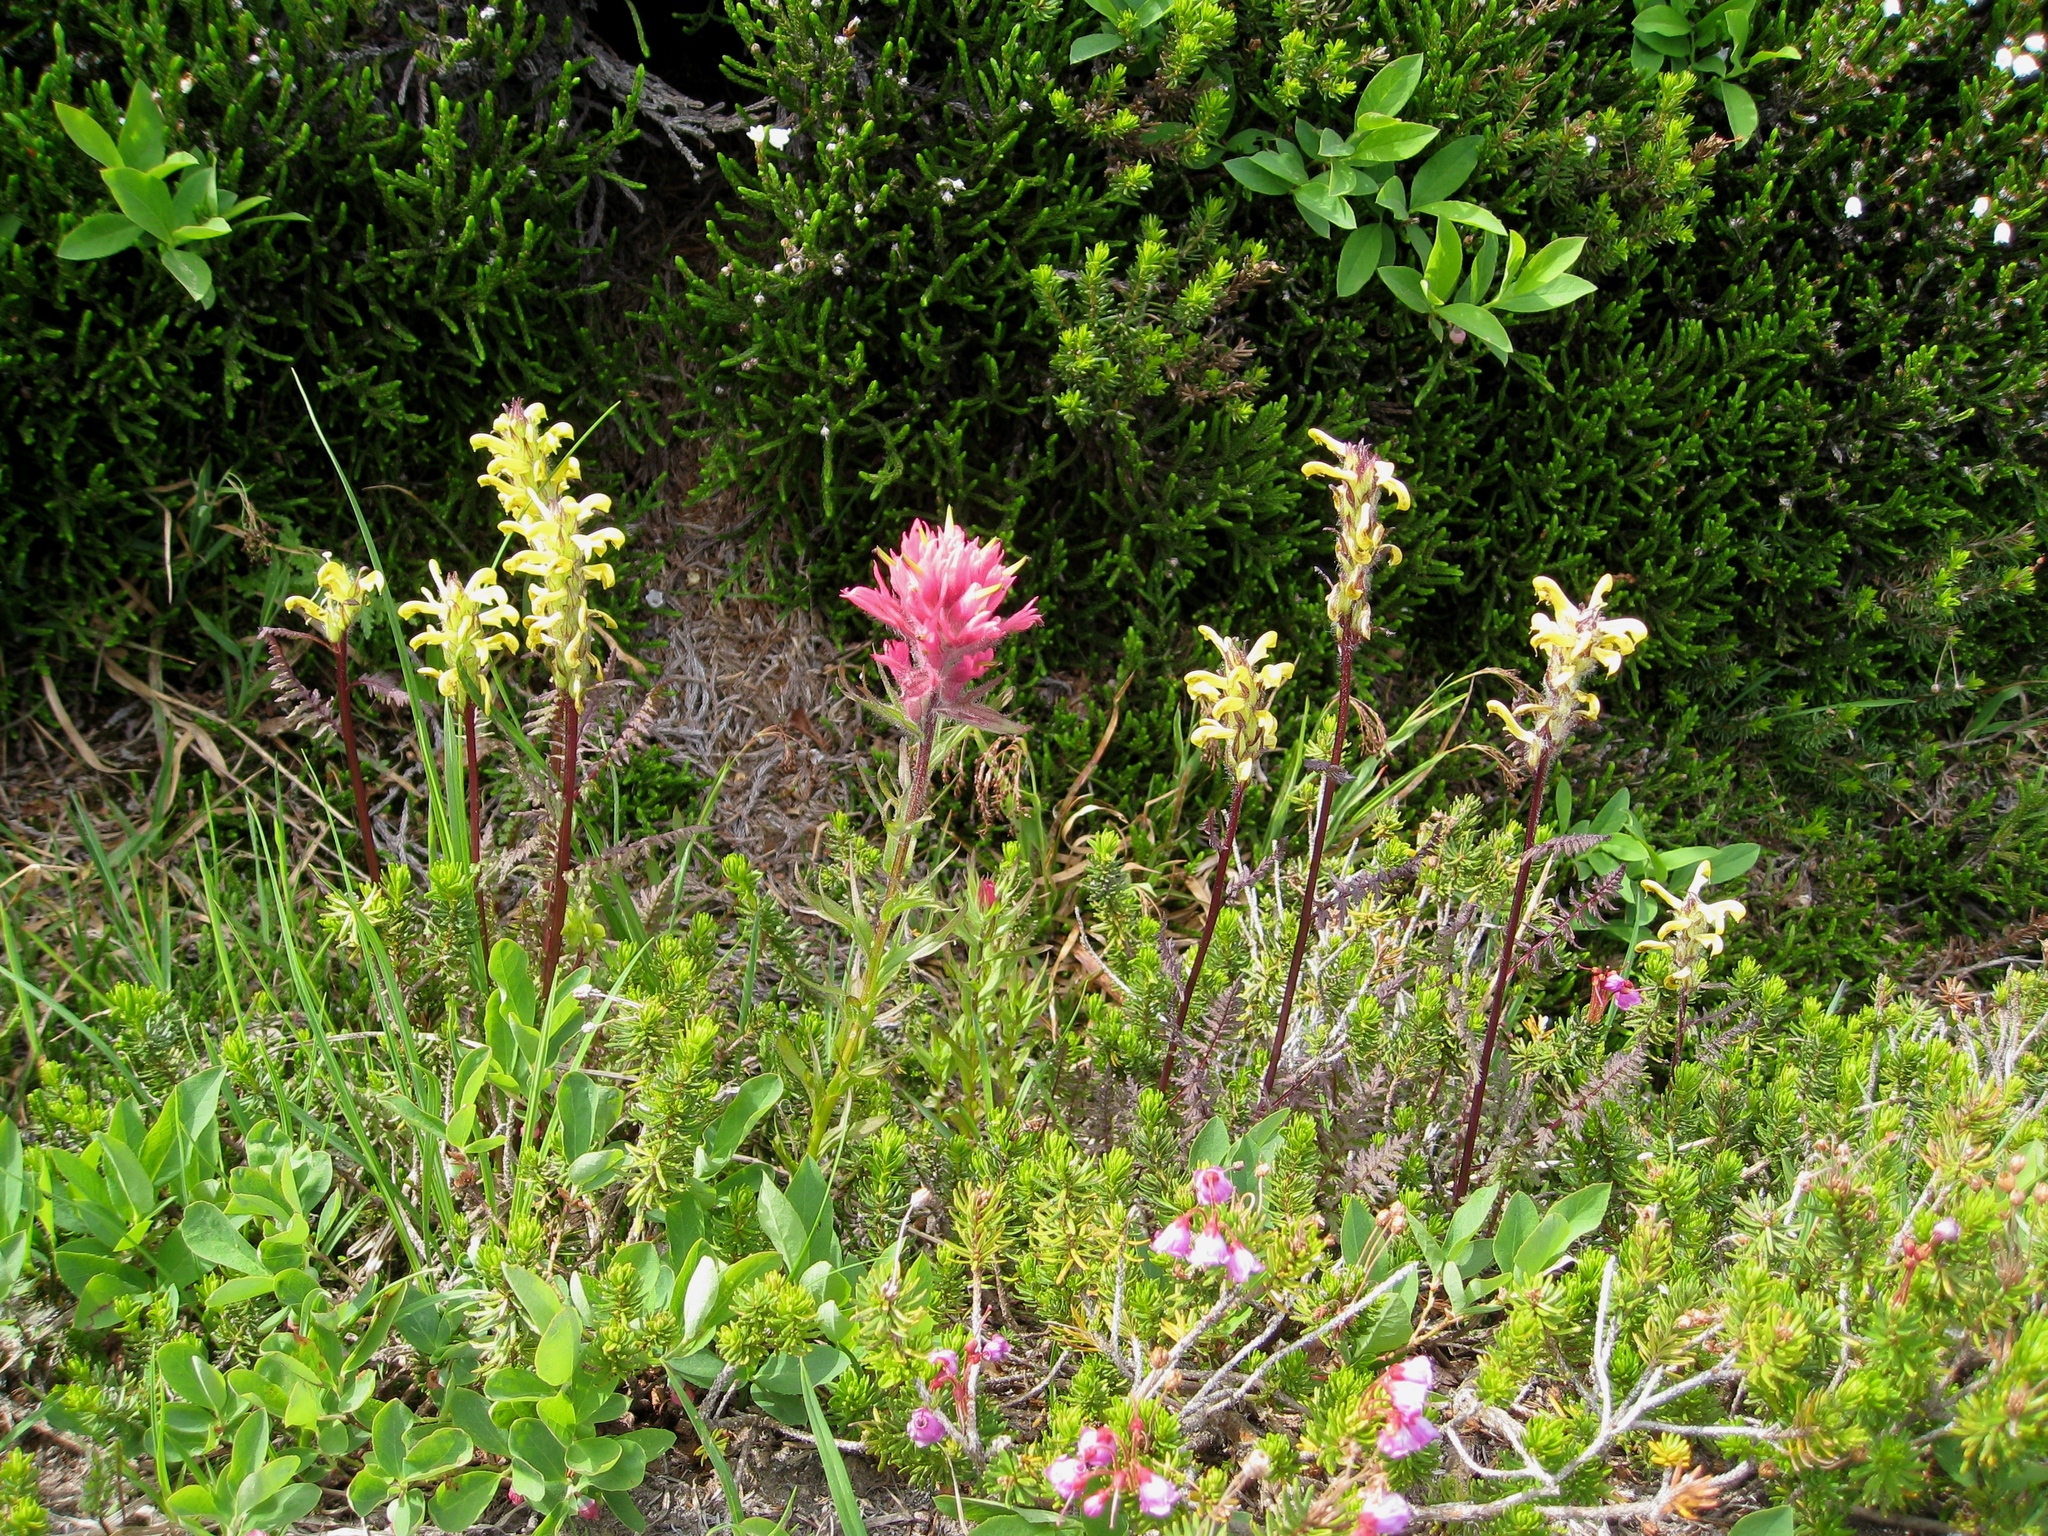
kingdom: Plantae
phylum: Tracheophyta
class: Magnoliopsida
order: Lamiales
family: Orobanchaceae
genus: Castilleja
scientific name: Castilleja parviflora
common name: Mountain paintbrush
